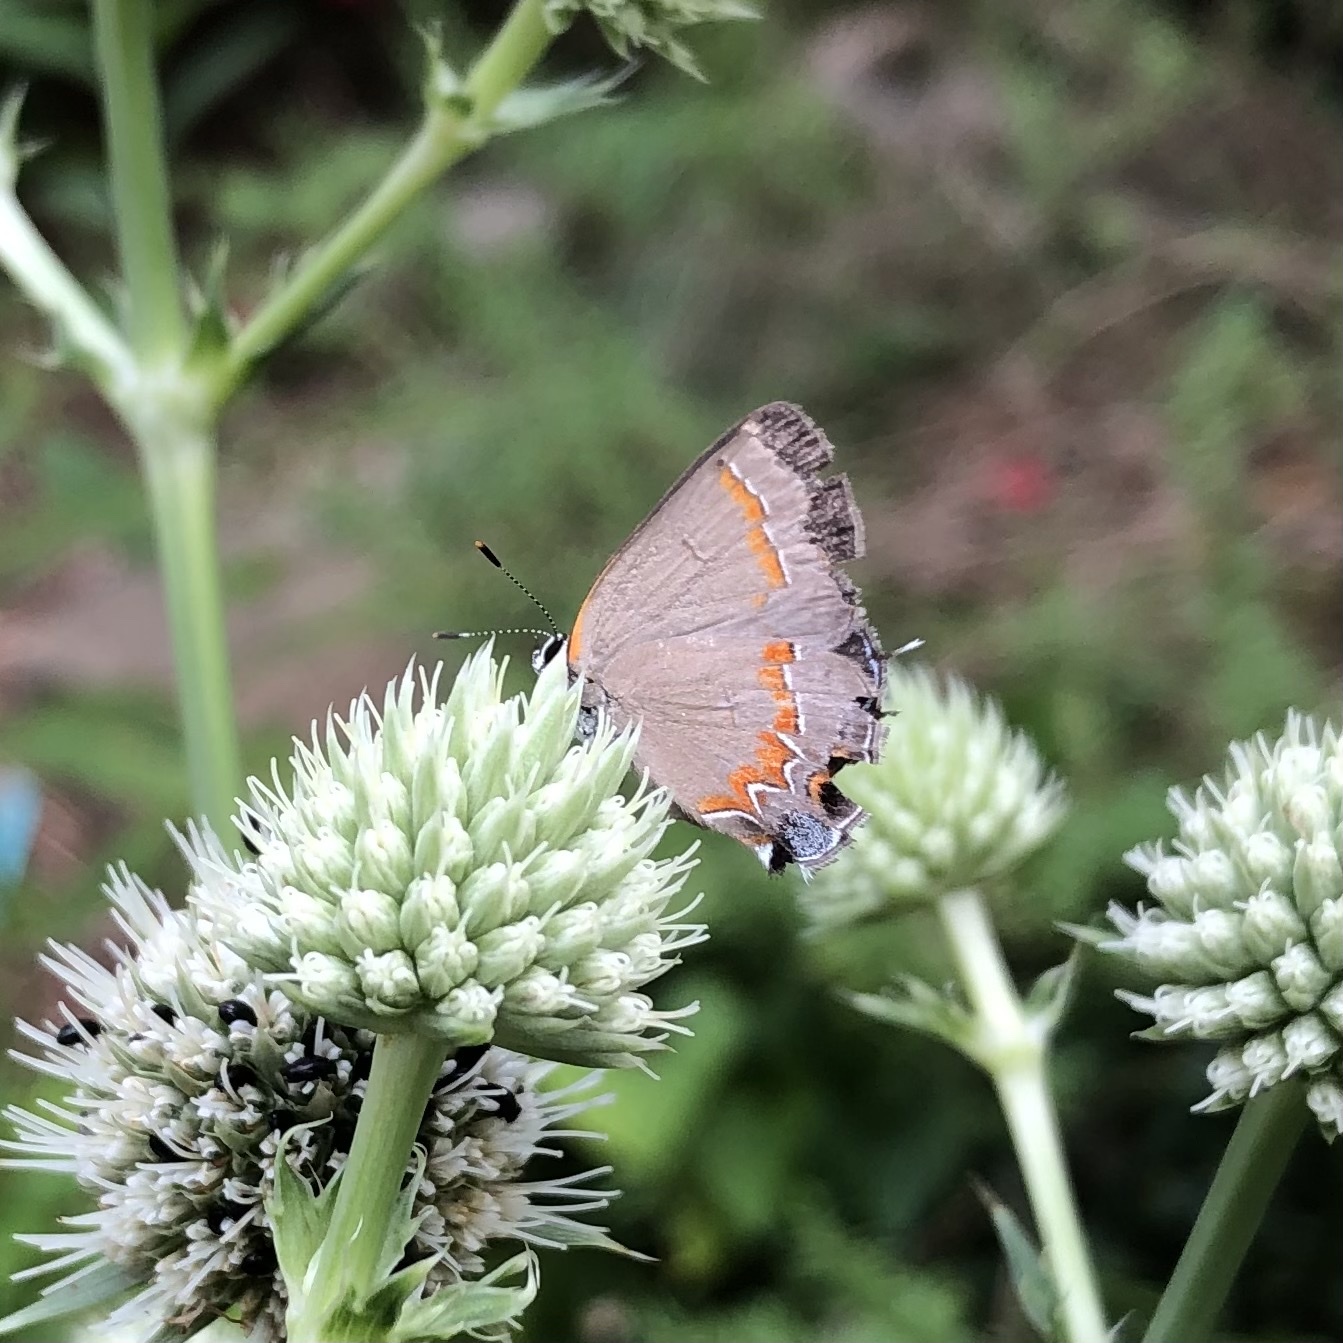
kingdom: Animalia
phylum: Arthropoda
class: Insecta
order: Lepidoptera
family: Lycaenidae
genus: Calycopis
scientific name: Calycopis cecrops
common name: Red-banded hairstreak
